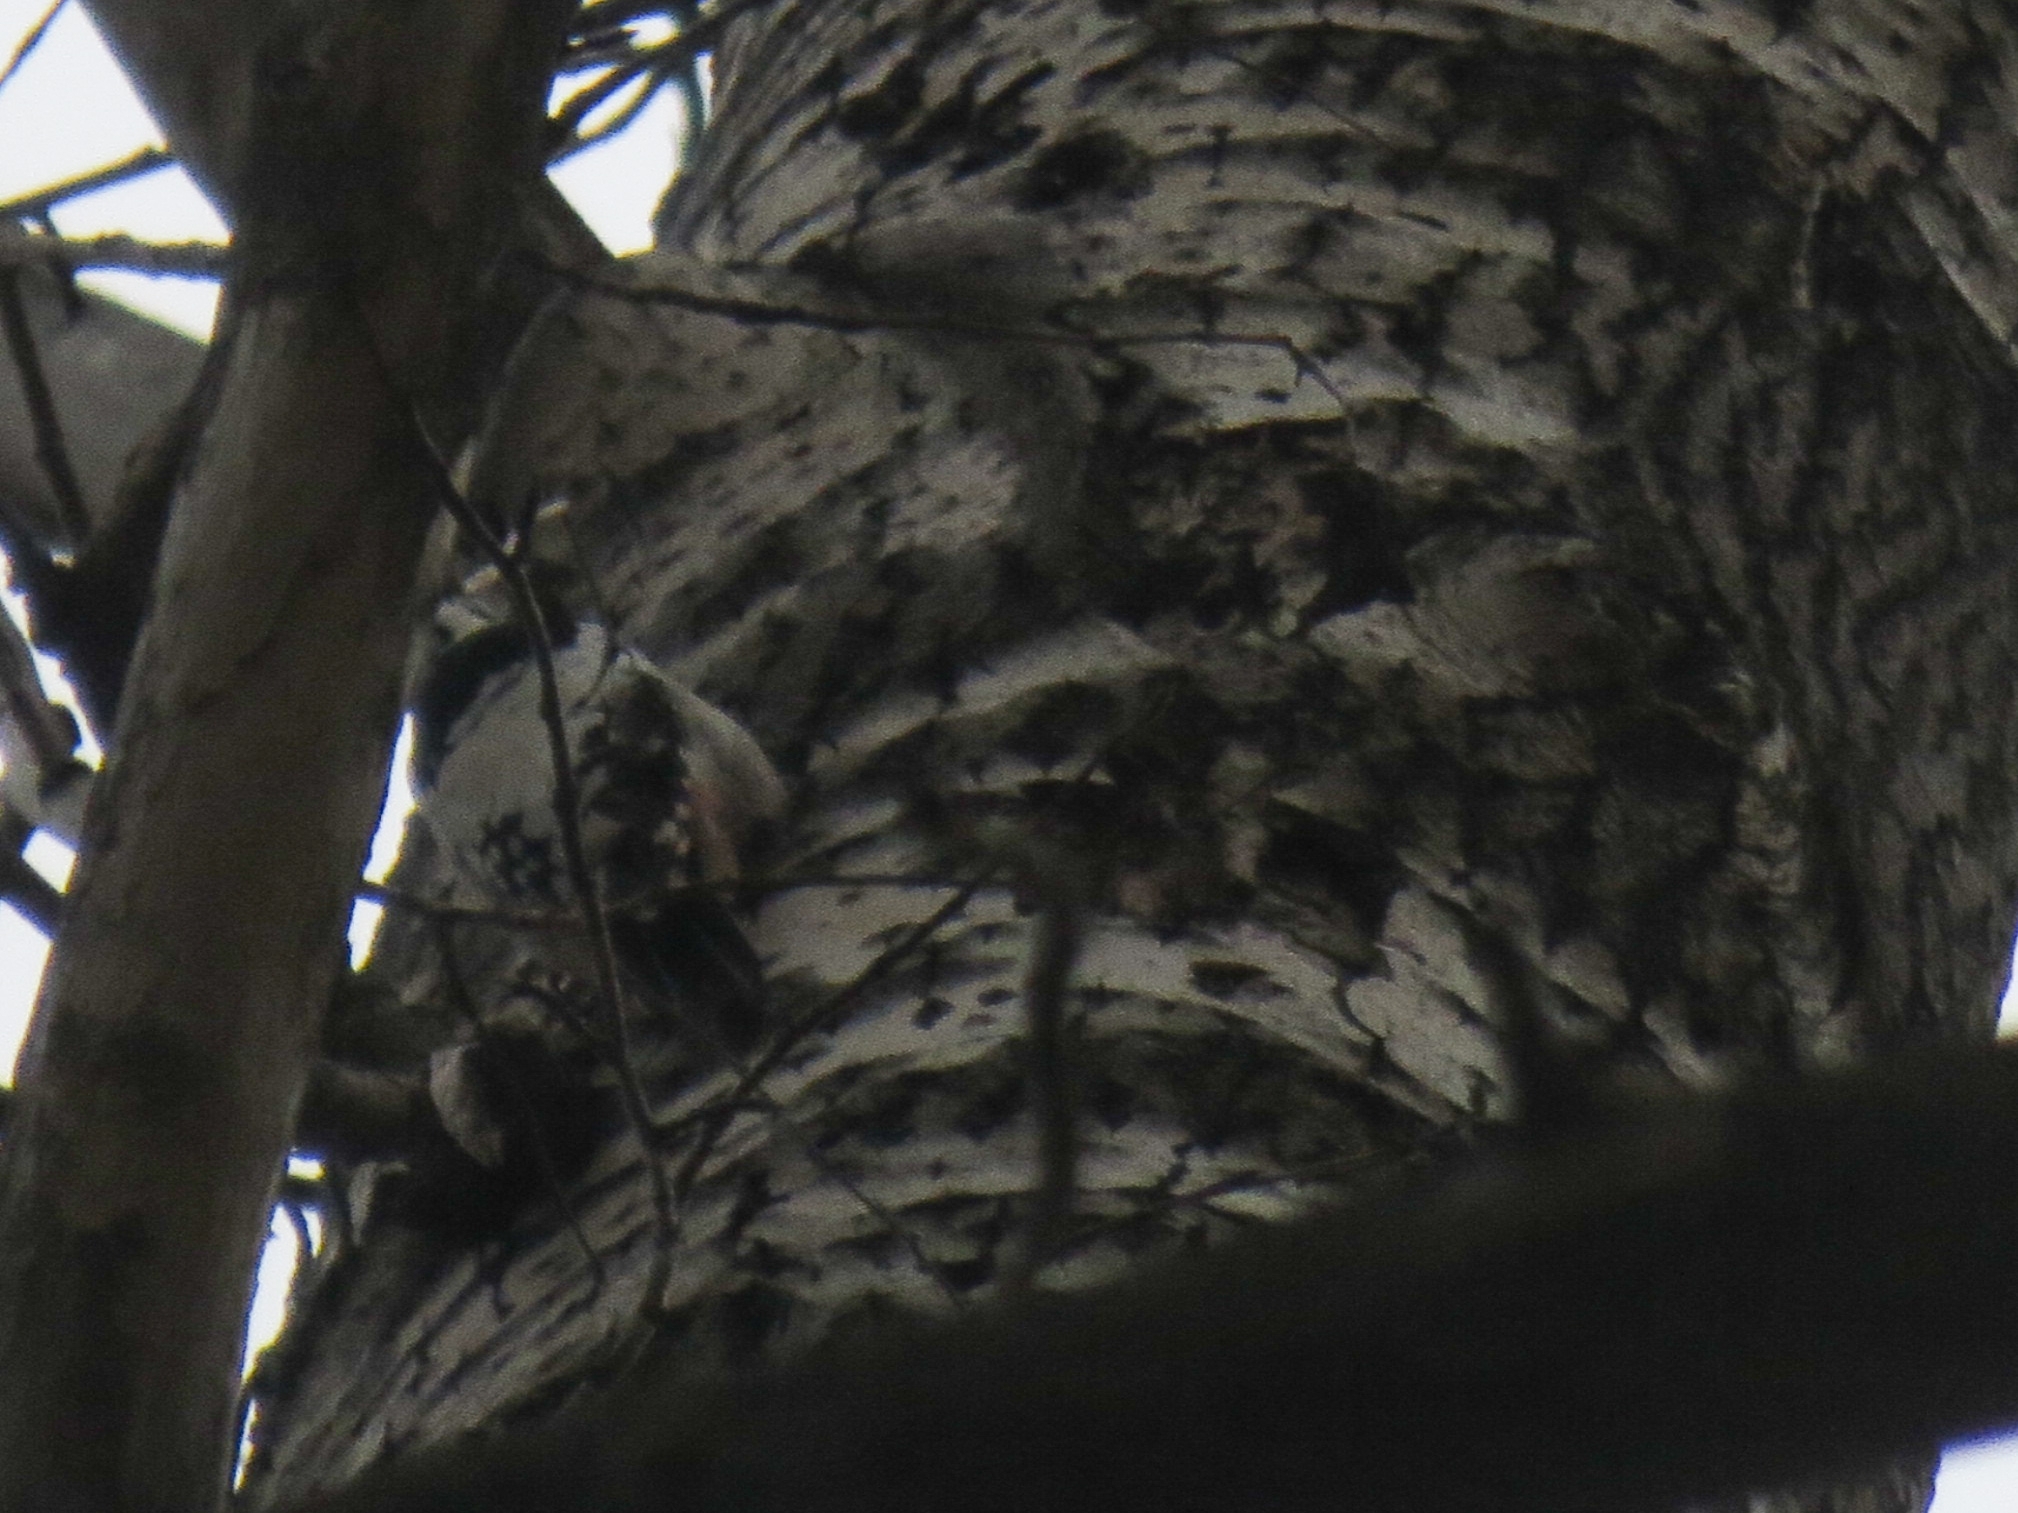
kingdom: Animalia
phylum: Chordata
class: Aves
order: Piciformes
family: Picidae
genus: Dendrocopos
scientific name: Dendrocopos leucotos
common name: White-backed woodpecker
